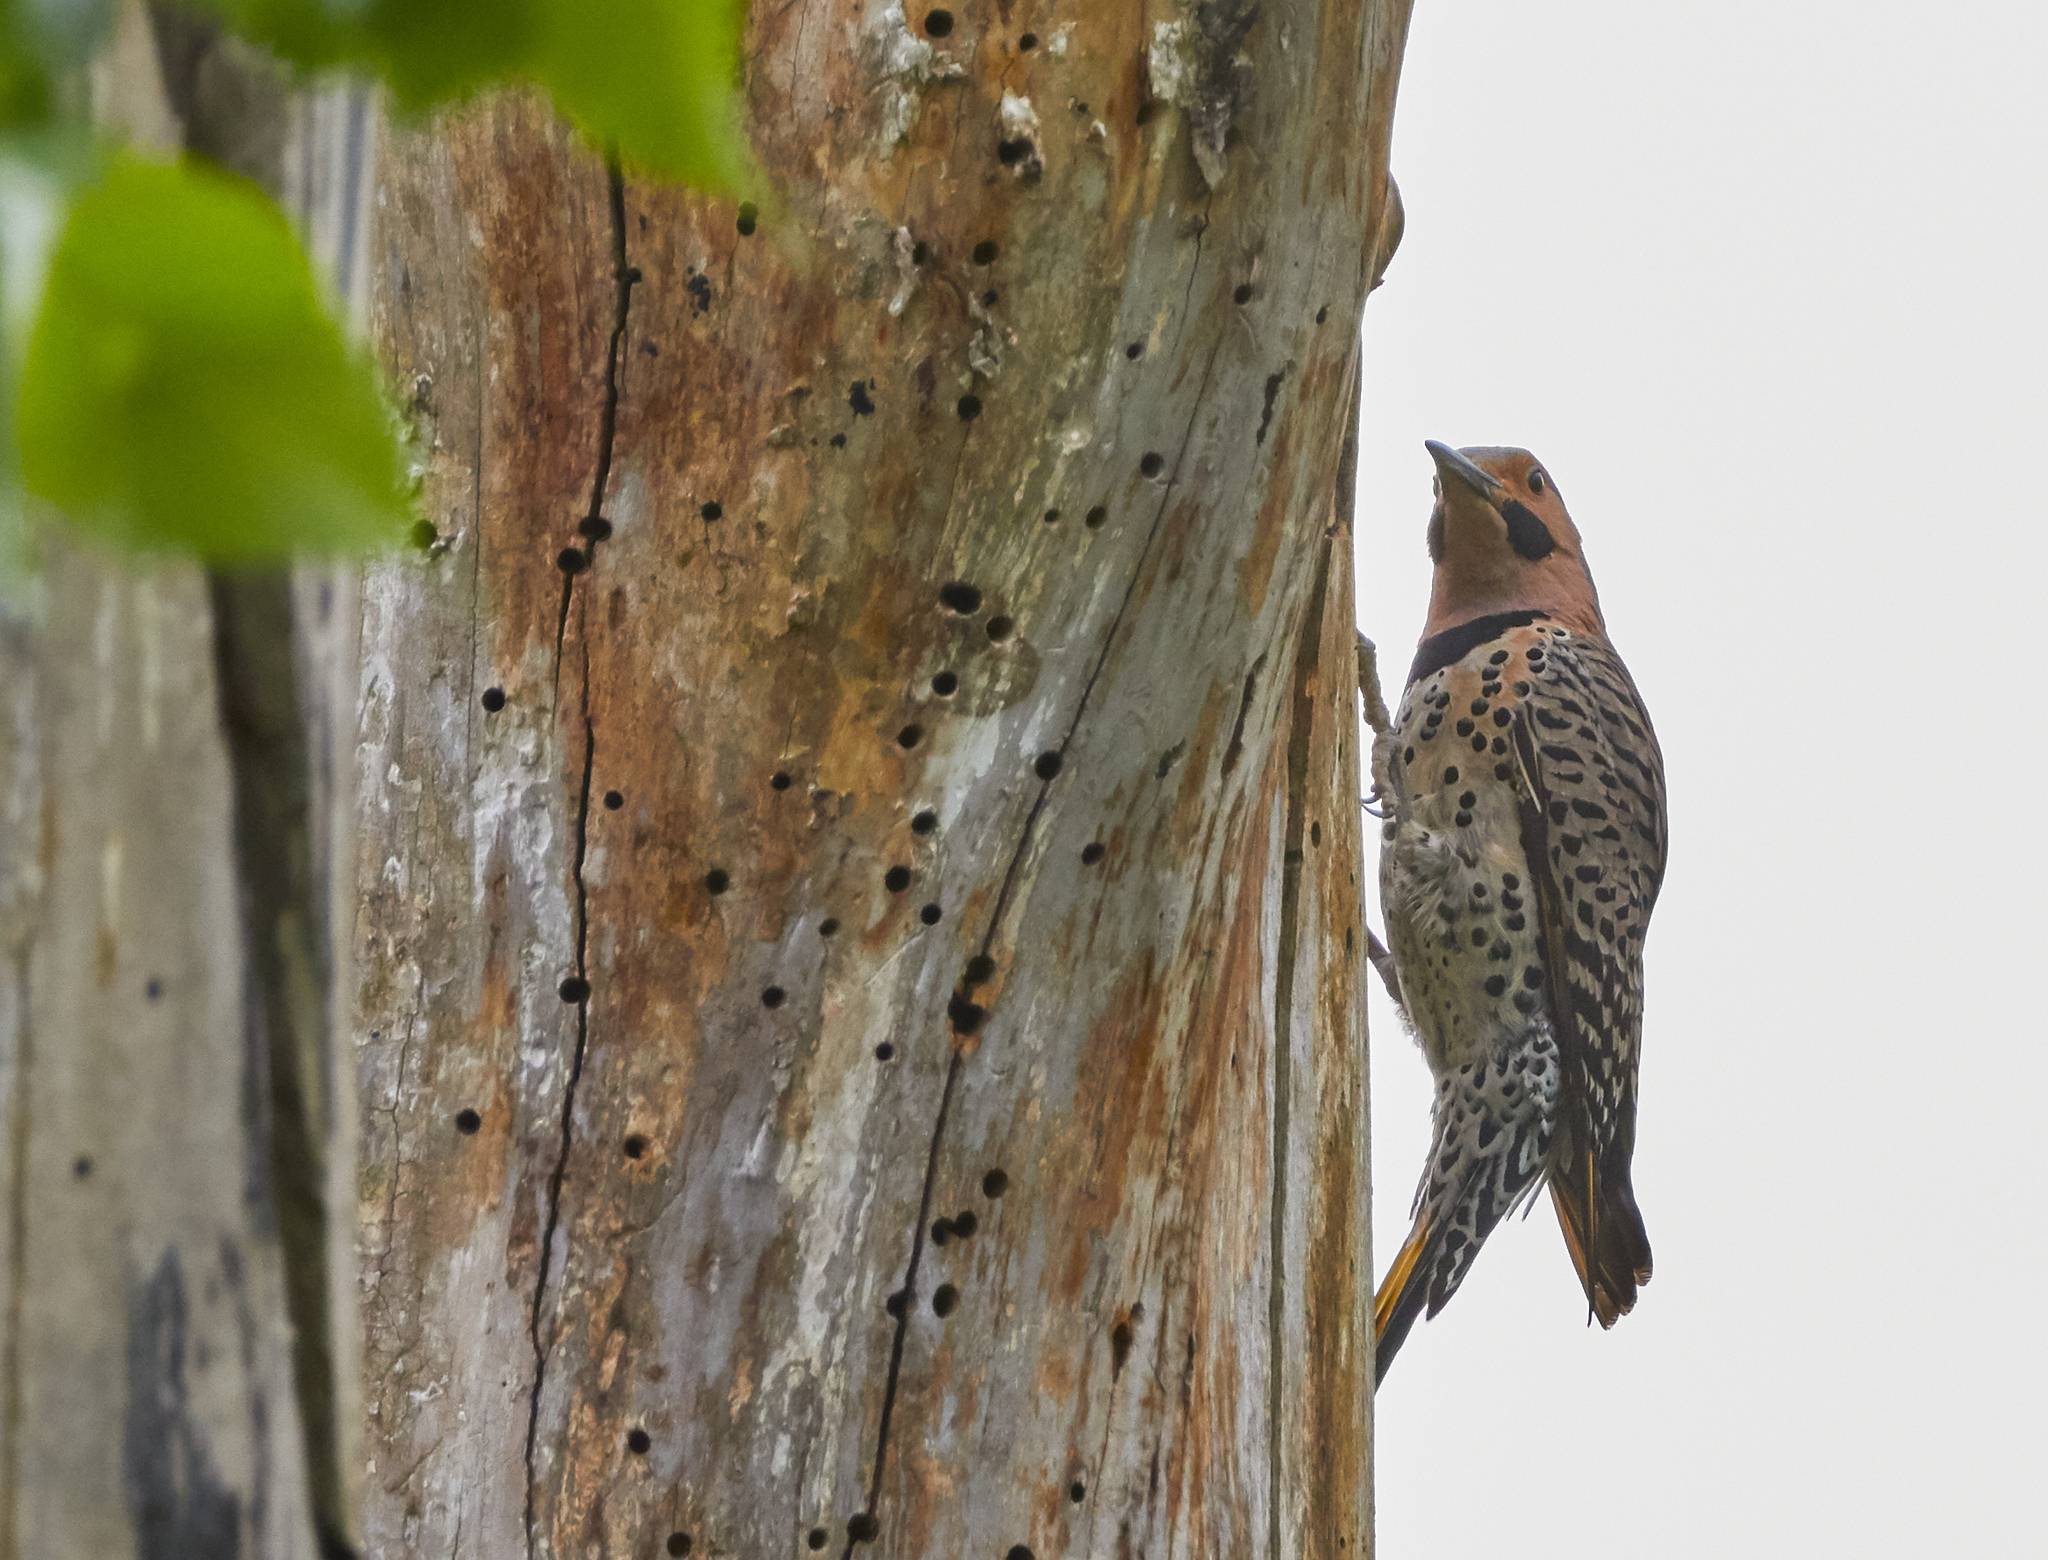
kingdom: Animalia
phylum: Chordata
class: Aves
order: Piciformes
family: Picidae
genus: Colaptes
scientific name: Colaptes auratus
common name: Northern flicker
